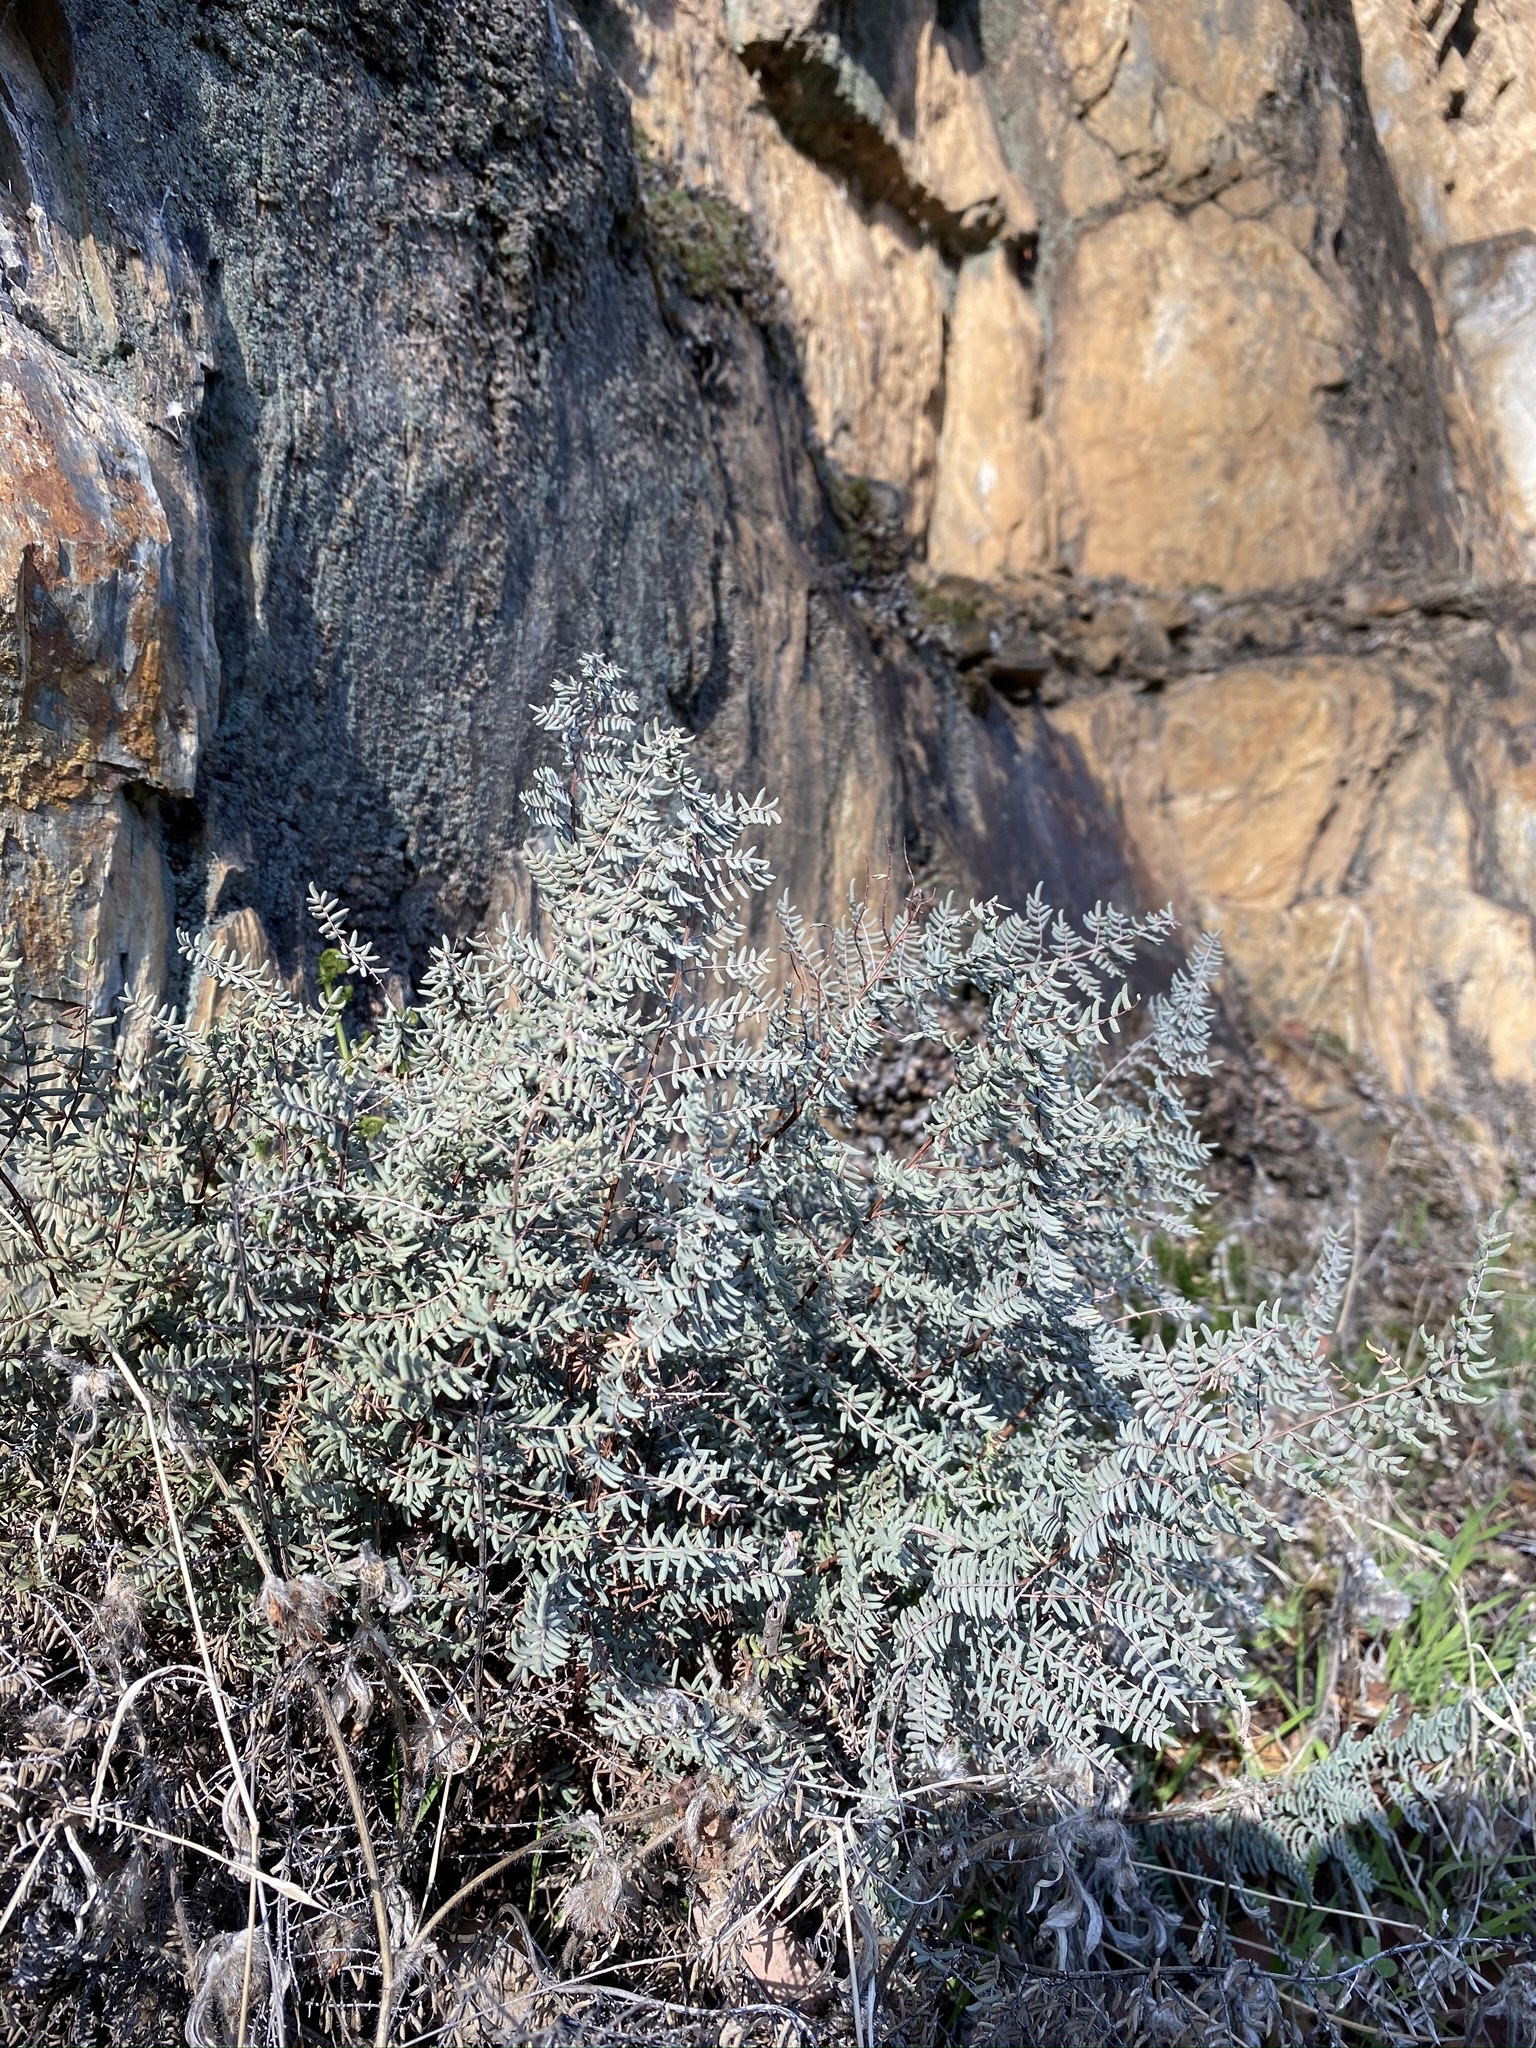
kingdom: Plantae
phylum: Tracheophyta
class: Polypodiopsida
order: Polypodiales
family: Pteridaceae
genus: Pellaea
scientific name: Pellaea mucronata
